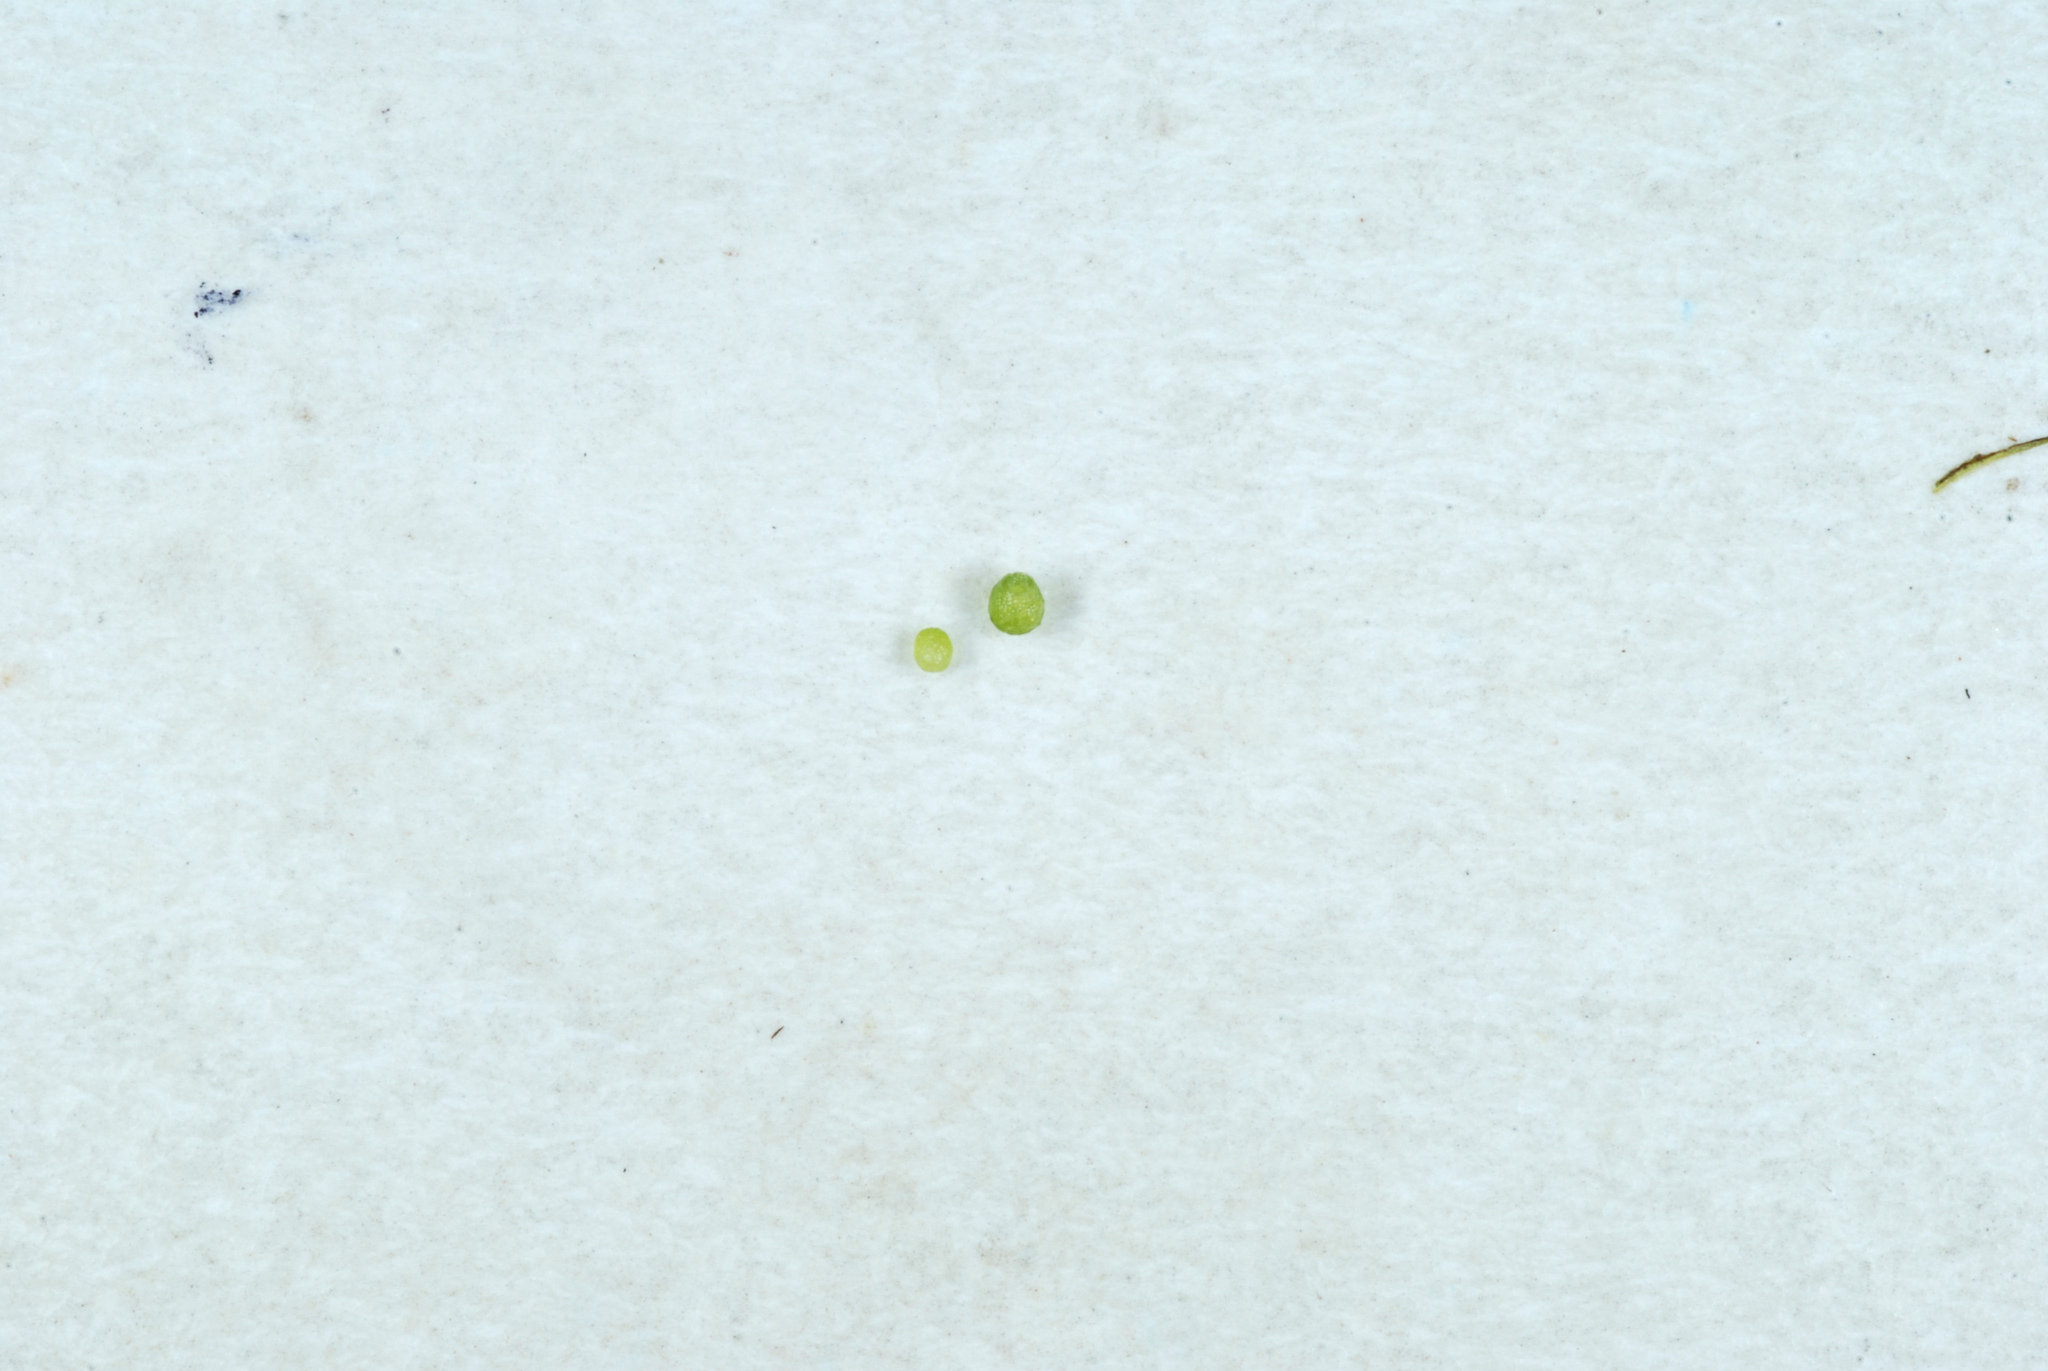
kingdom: Plantae
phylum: Tracheophyta
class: Liliopsida
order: Alismatales
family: Araceae
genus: Wolffia
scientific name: Wolffia columbiana
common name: Columbia watermeal
